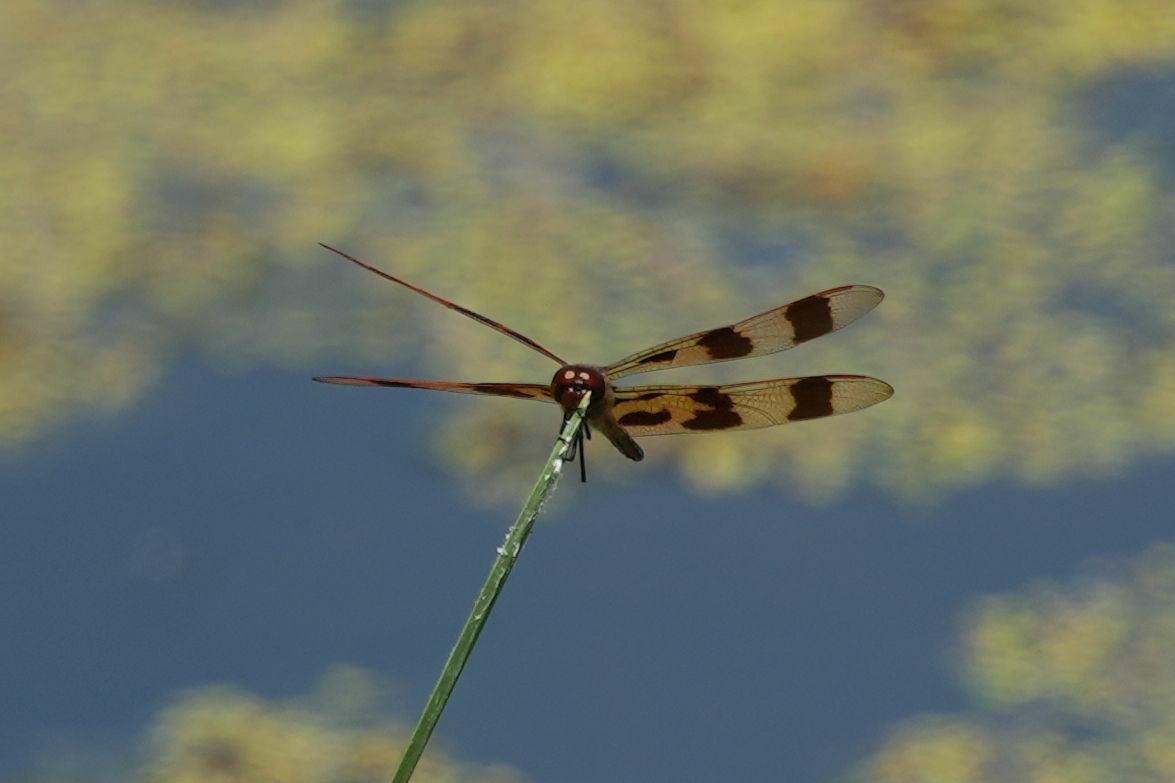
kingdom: Animalia
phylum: Arthropoda
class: Insecta
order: Odonata
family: Libellulidae
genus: Celithemis
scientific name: Celithemis eponina
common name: Halloween pennant
